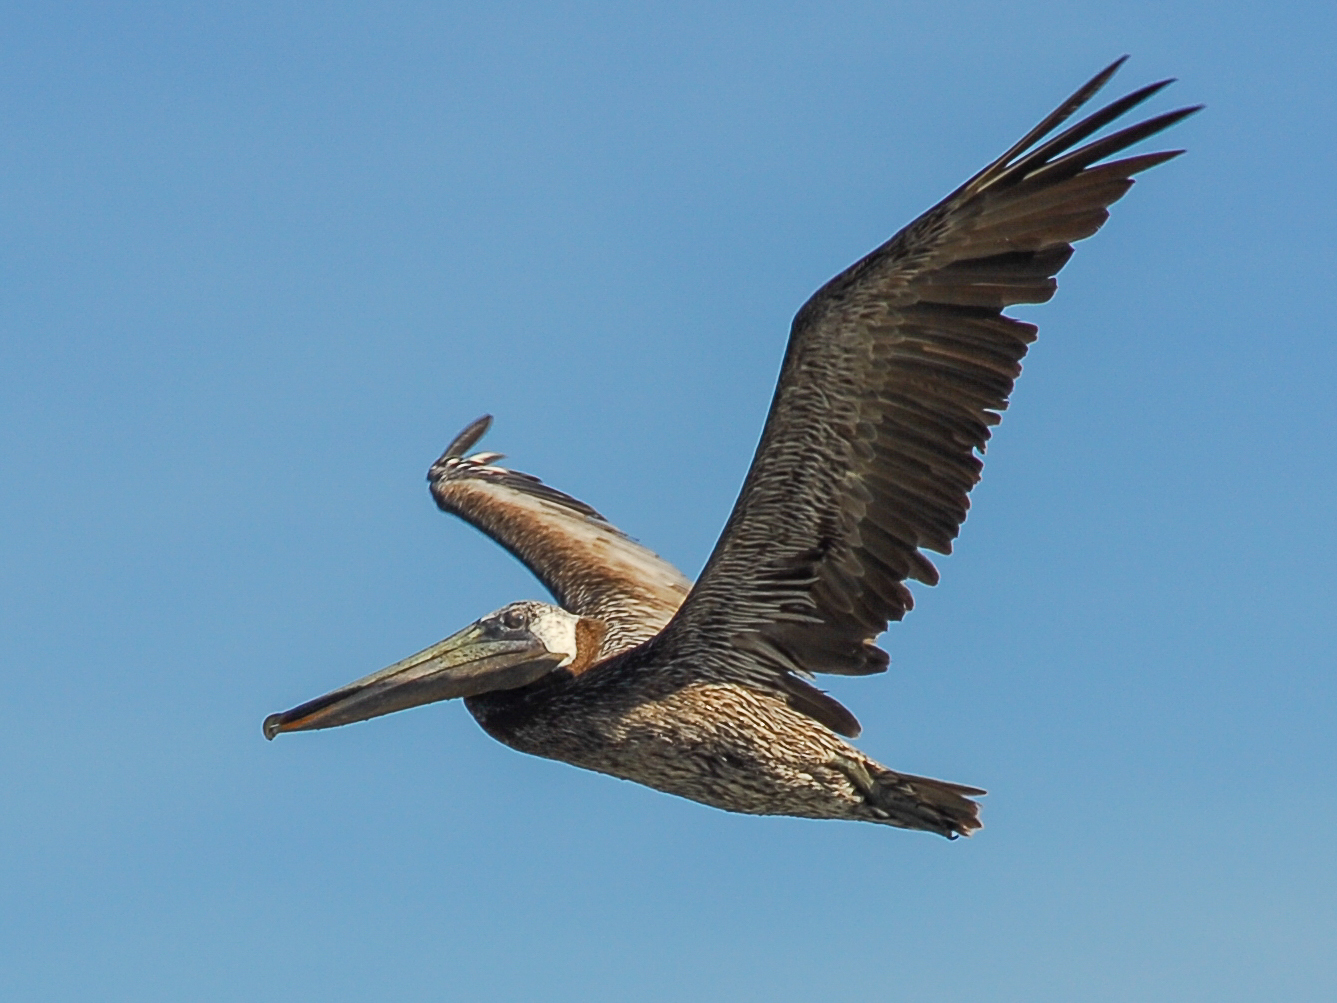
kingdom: Animalia
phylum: Chordata
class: Aves
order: Pelecaniformes
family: Pelecanidae
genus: Pelecanus
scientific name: Pelecanus occidentalis
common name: Brown pelican
